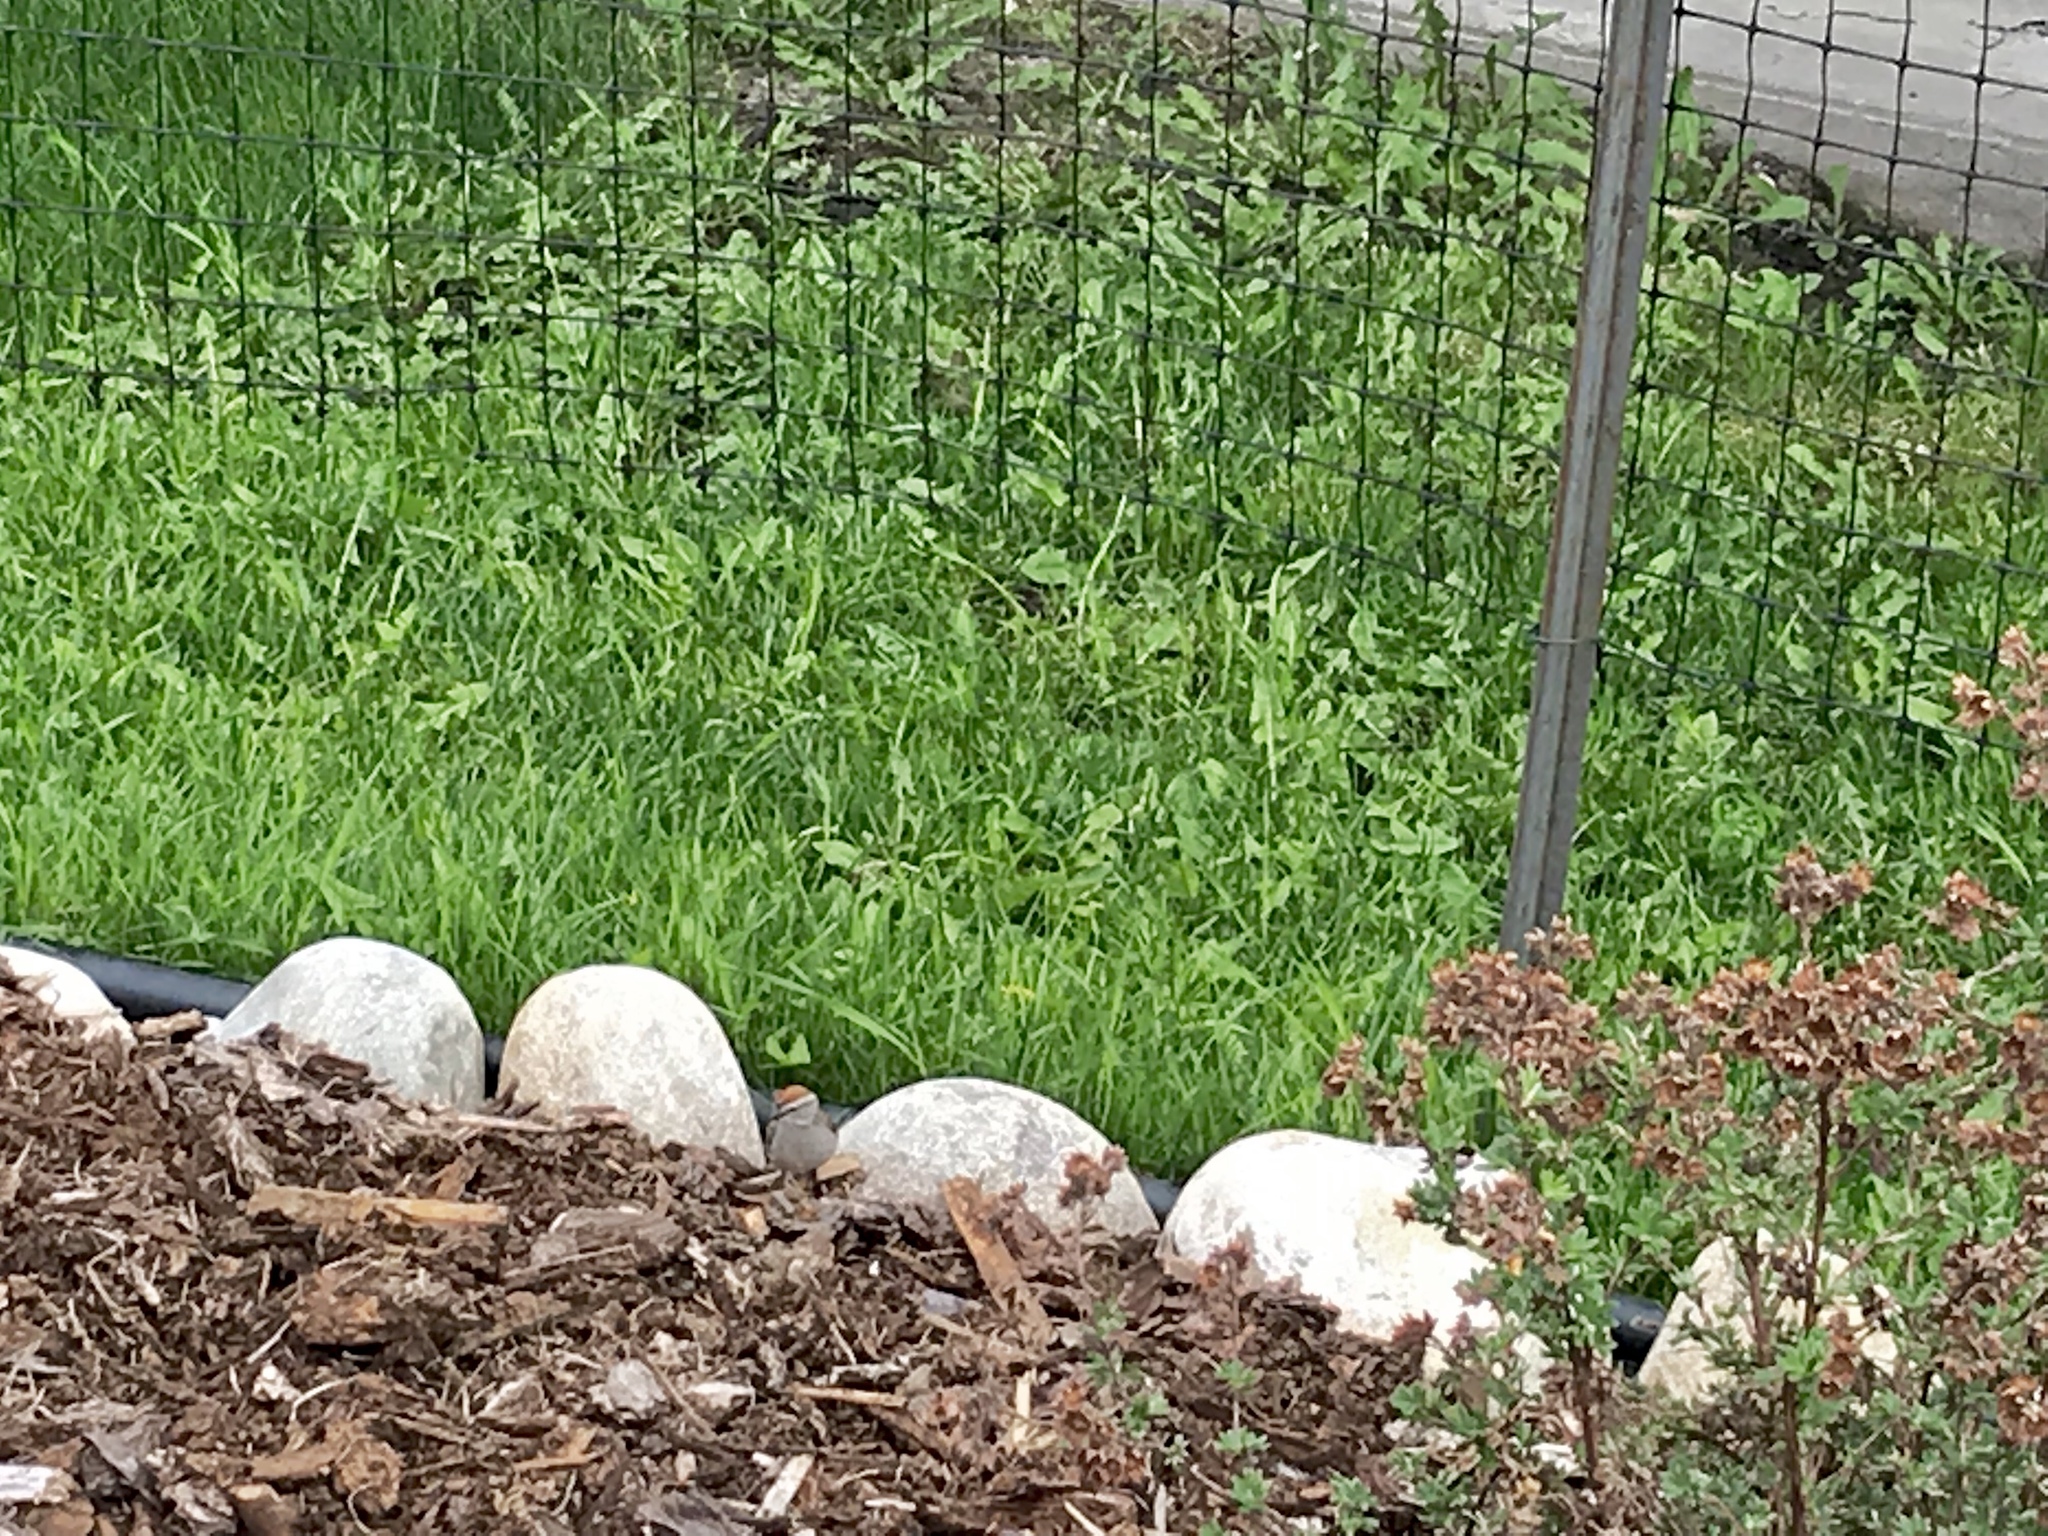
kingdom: Animalia
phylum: Chordata
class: Aves
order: Passeriformes
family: Passerellidae
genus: Spizella
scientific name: Spizella passerina
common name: Chipping sparrow
